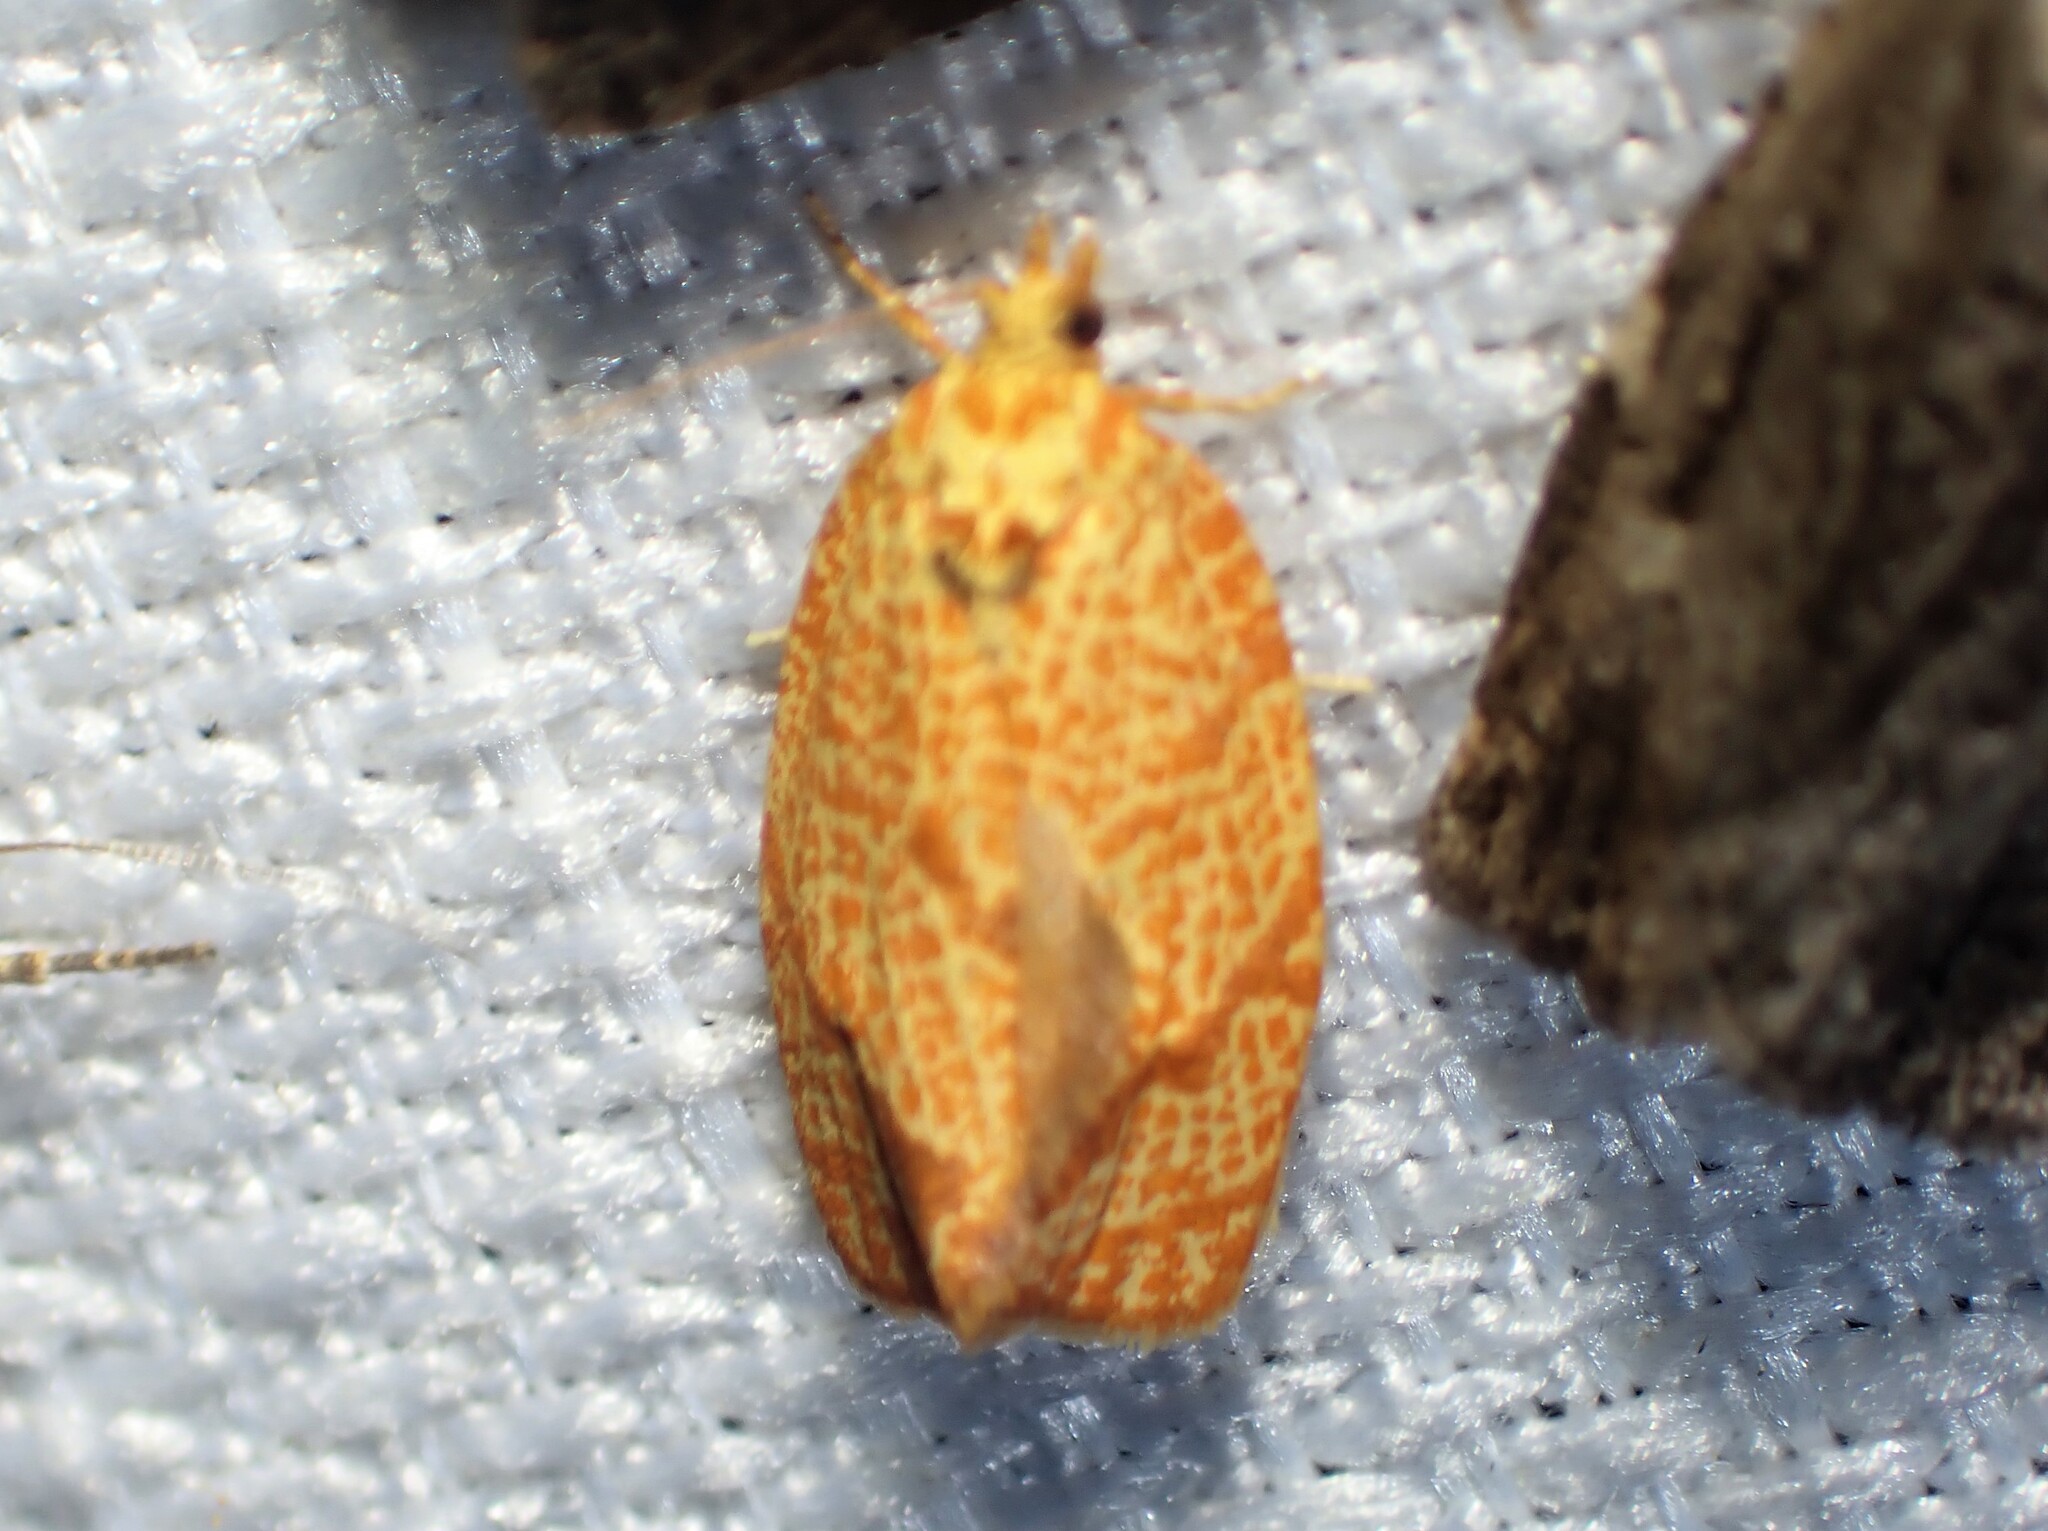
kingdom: Animalia
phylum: Arthropoda
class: Insecta
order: Lepidoptera
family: Tortricidae
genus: Argyrotaenia
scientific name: Argyrotaenia quadrifasciana
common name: Four-lined leafroller moth
